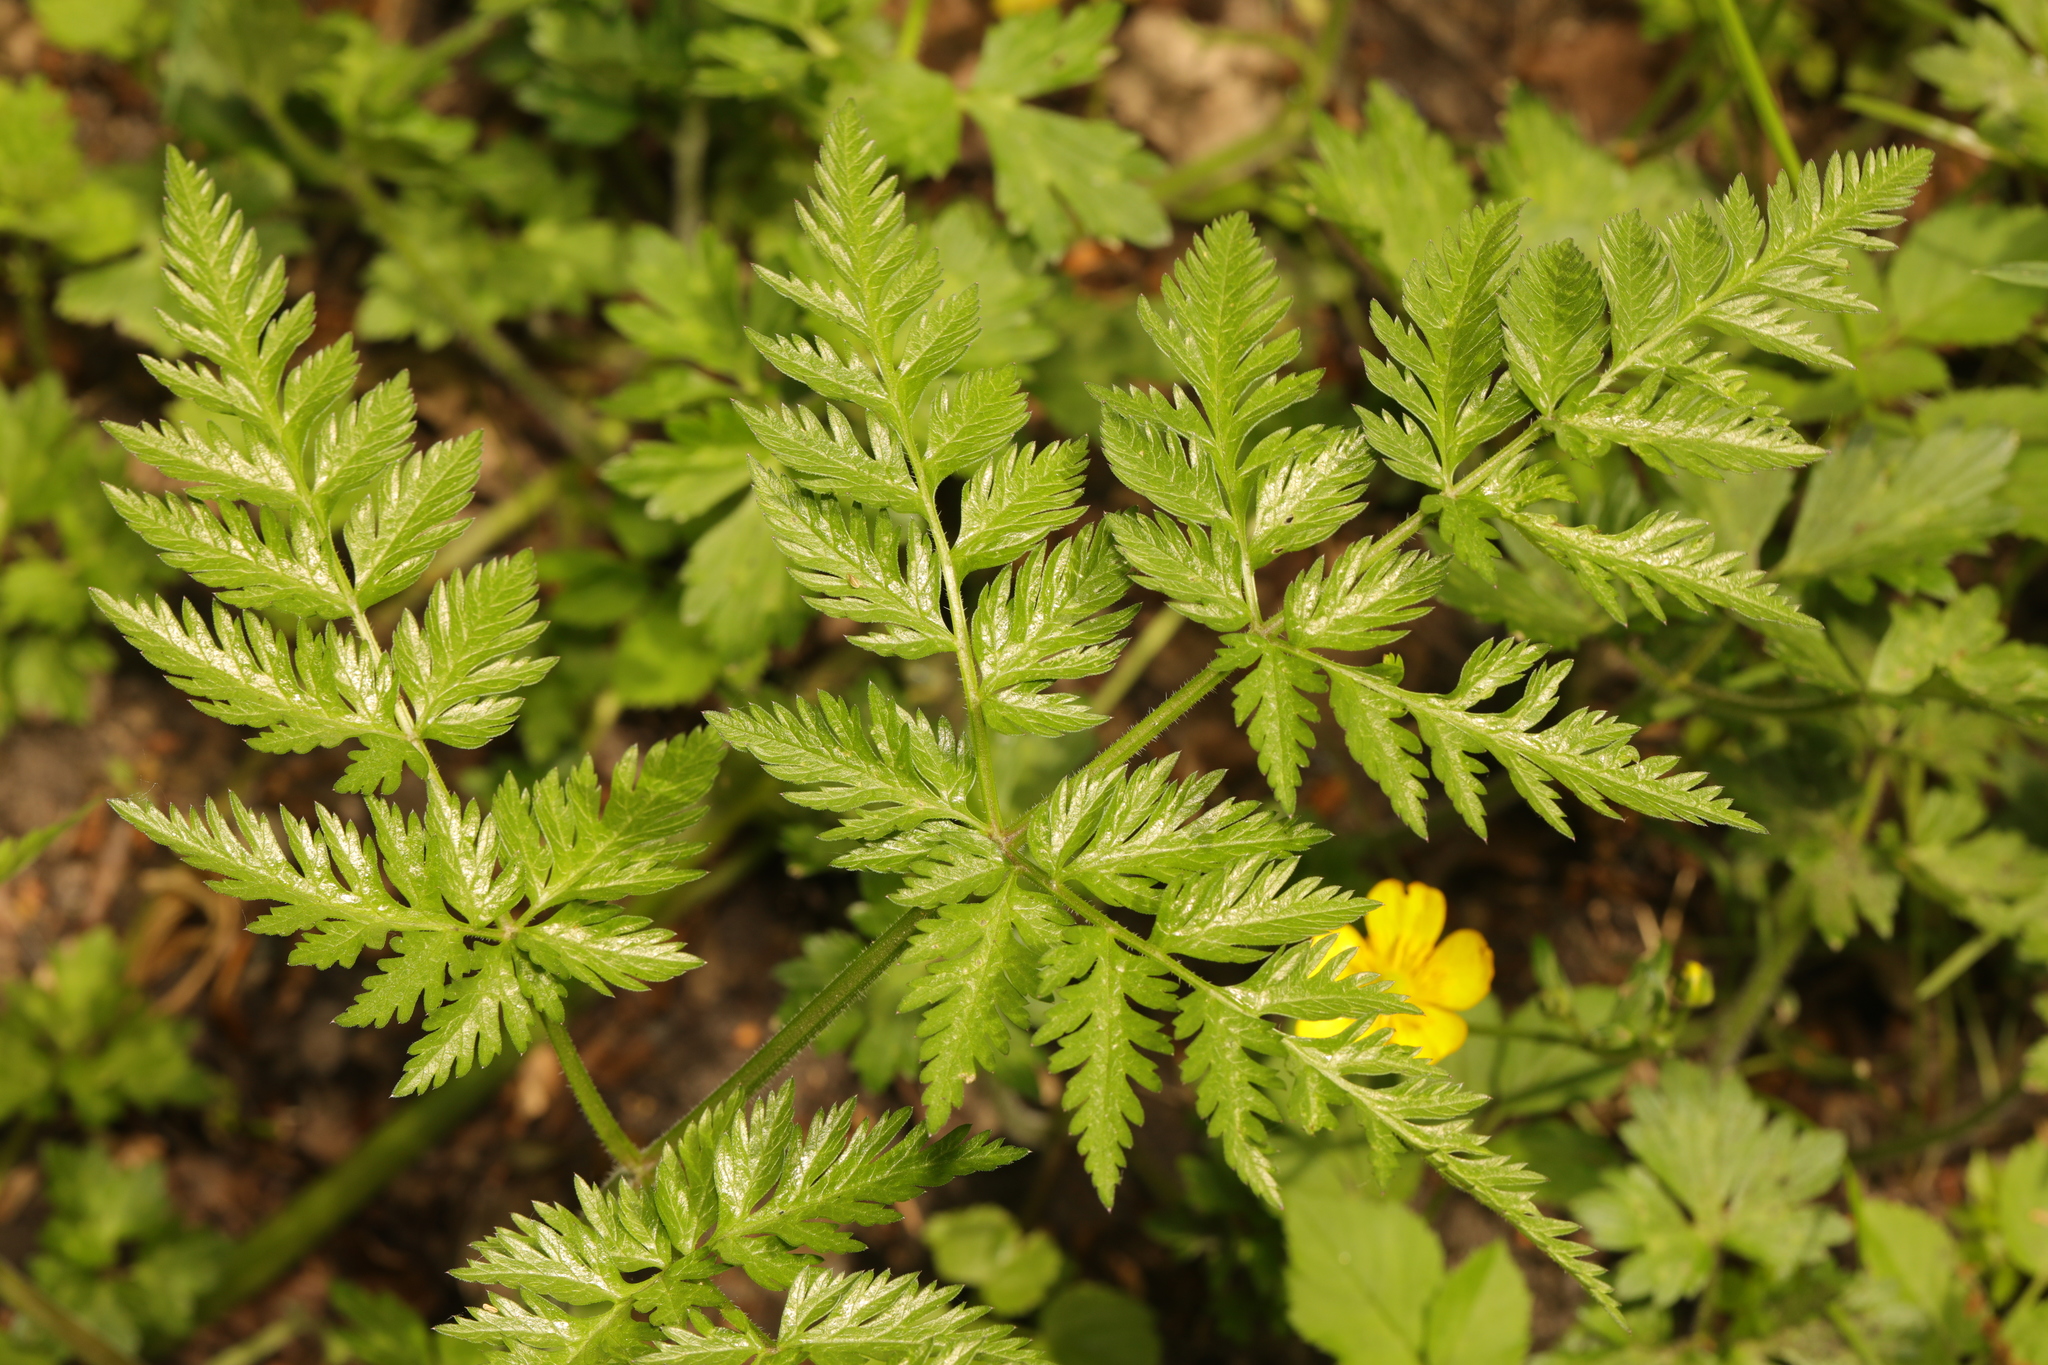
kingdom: Plantae
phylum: Tracheophyta
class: Magnoliopsida
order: Apiales
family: Apiaceae
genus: Anthriscus
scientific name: Anthriscus sylvestris
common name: Cow parsley
